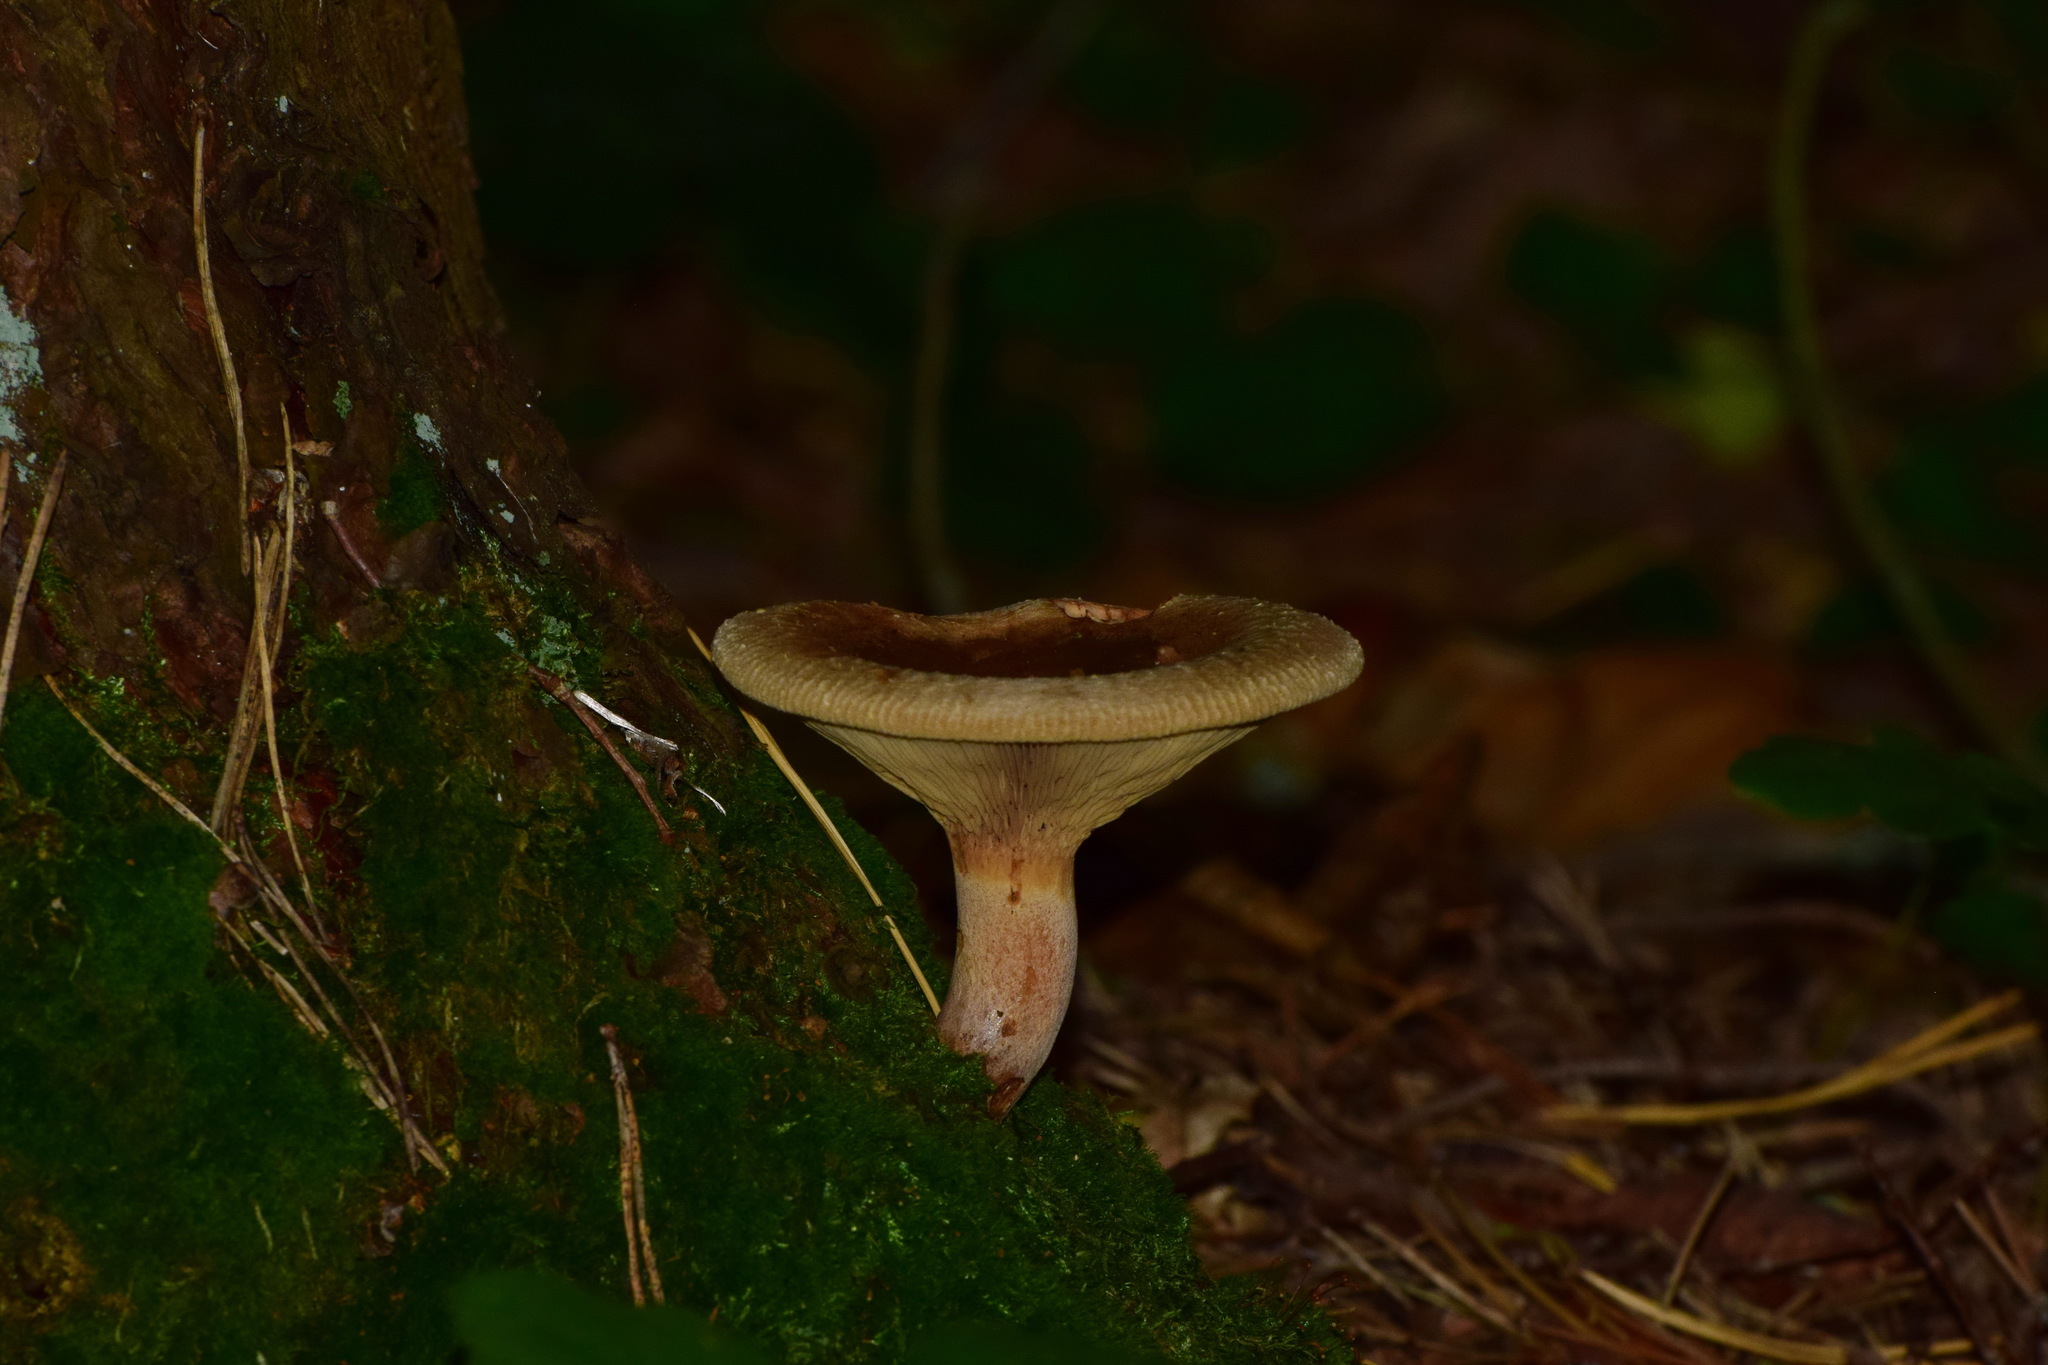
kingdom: Fungi
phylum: Basidiomycota
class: Agaricomycetes
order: Boletales
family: Paxillaceae
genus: Paxillus
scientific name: Paxillus involutus
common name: Brown roll rim
